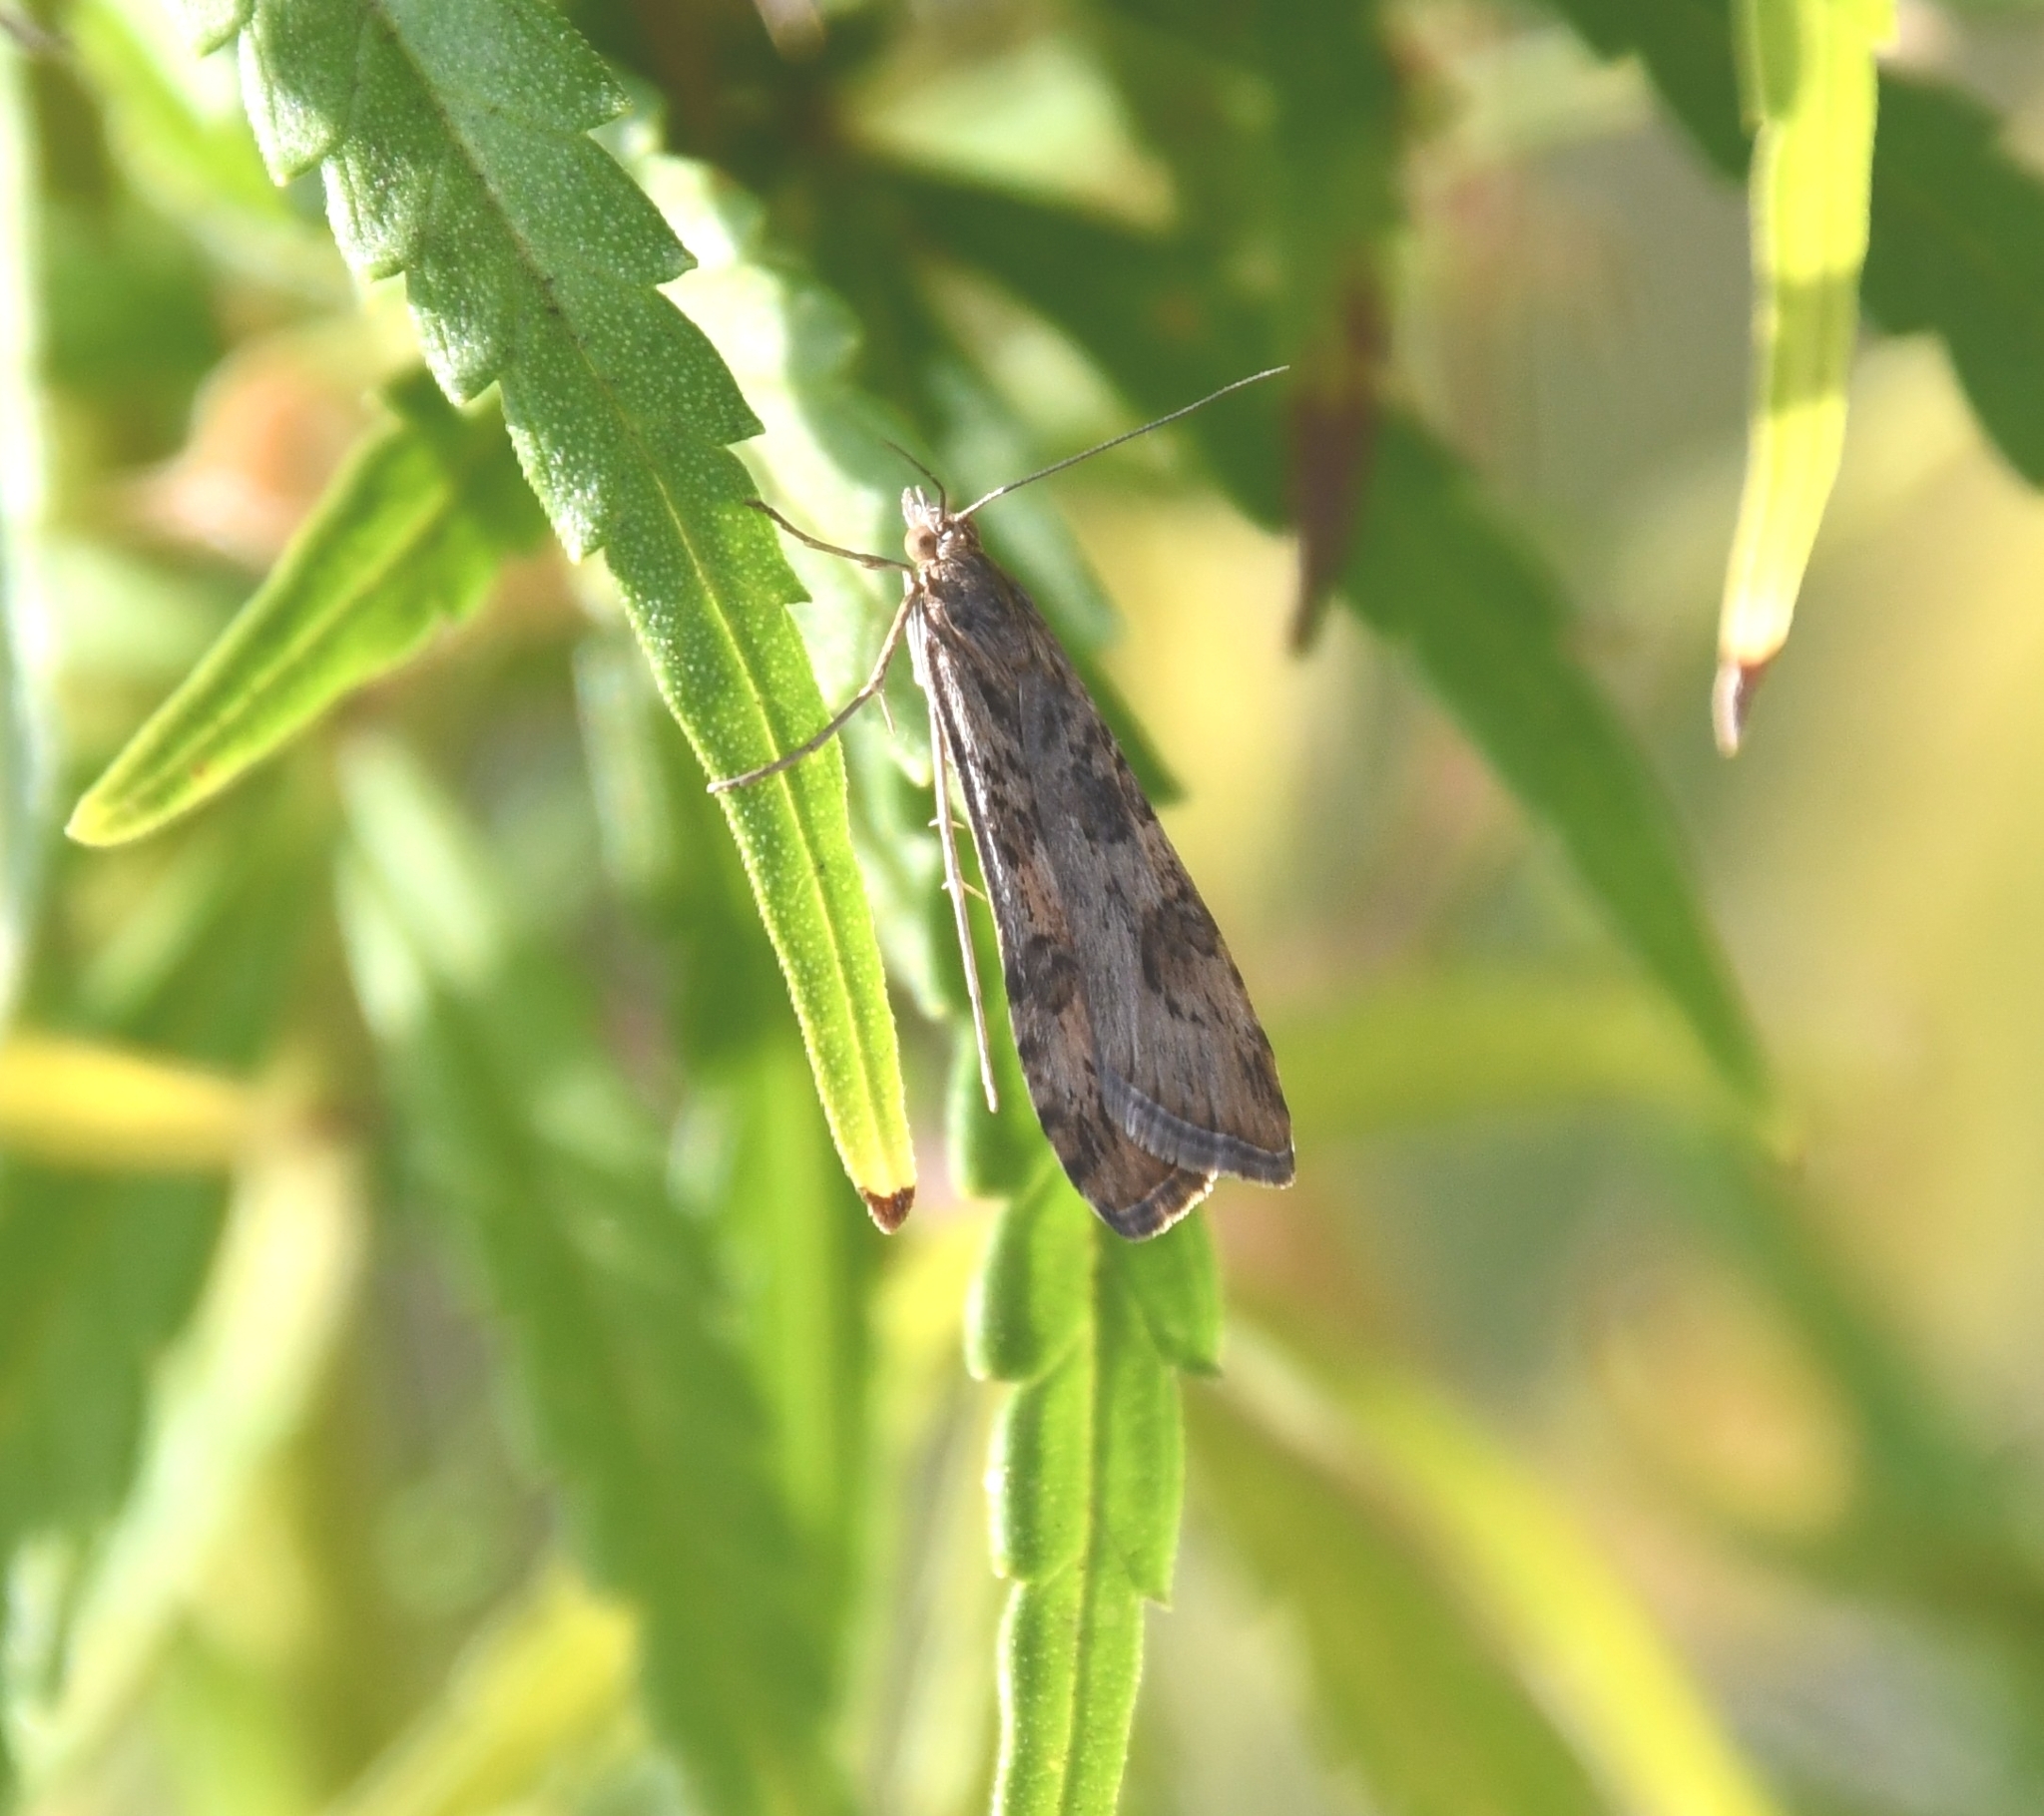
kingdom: Animalia
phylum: Arthropoda
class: Insecta
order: Lepidoptera
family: Crambidae
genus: Nomophila
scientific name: Nomophila noctuella
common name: Rush veneer
